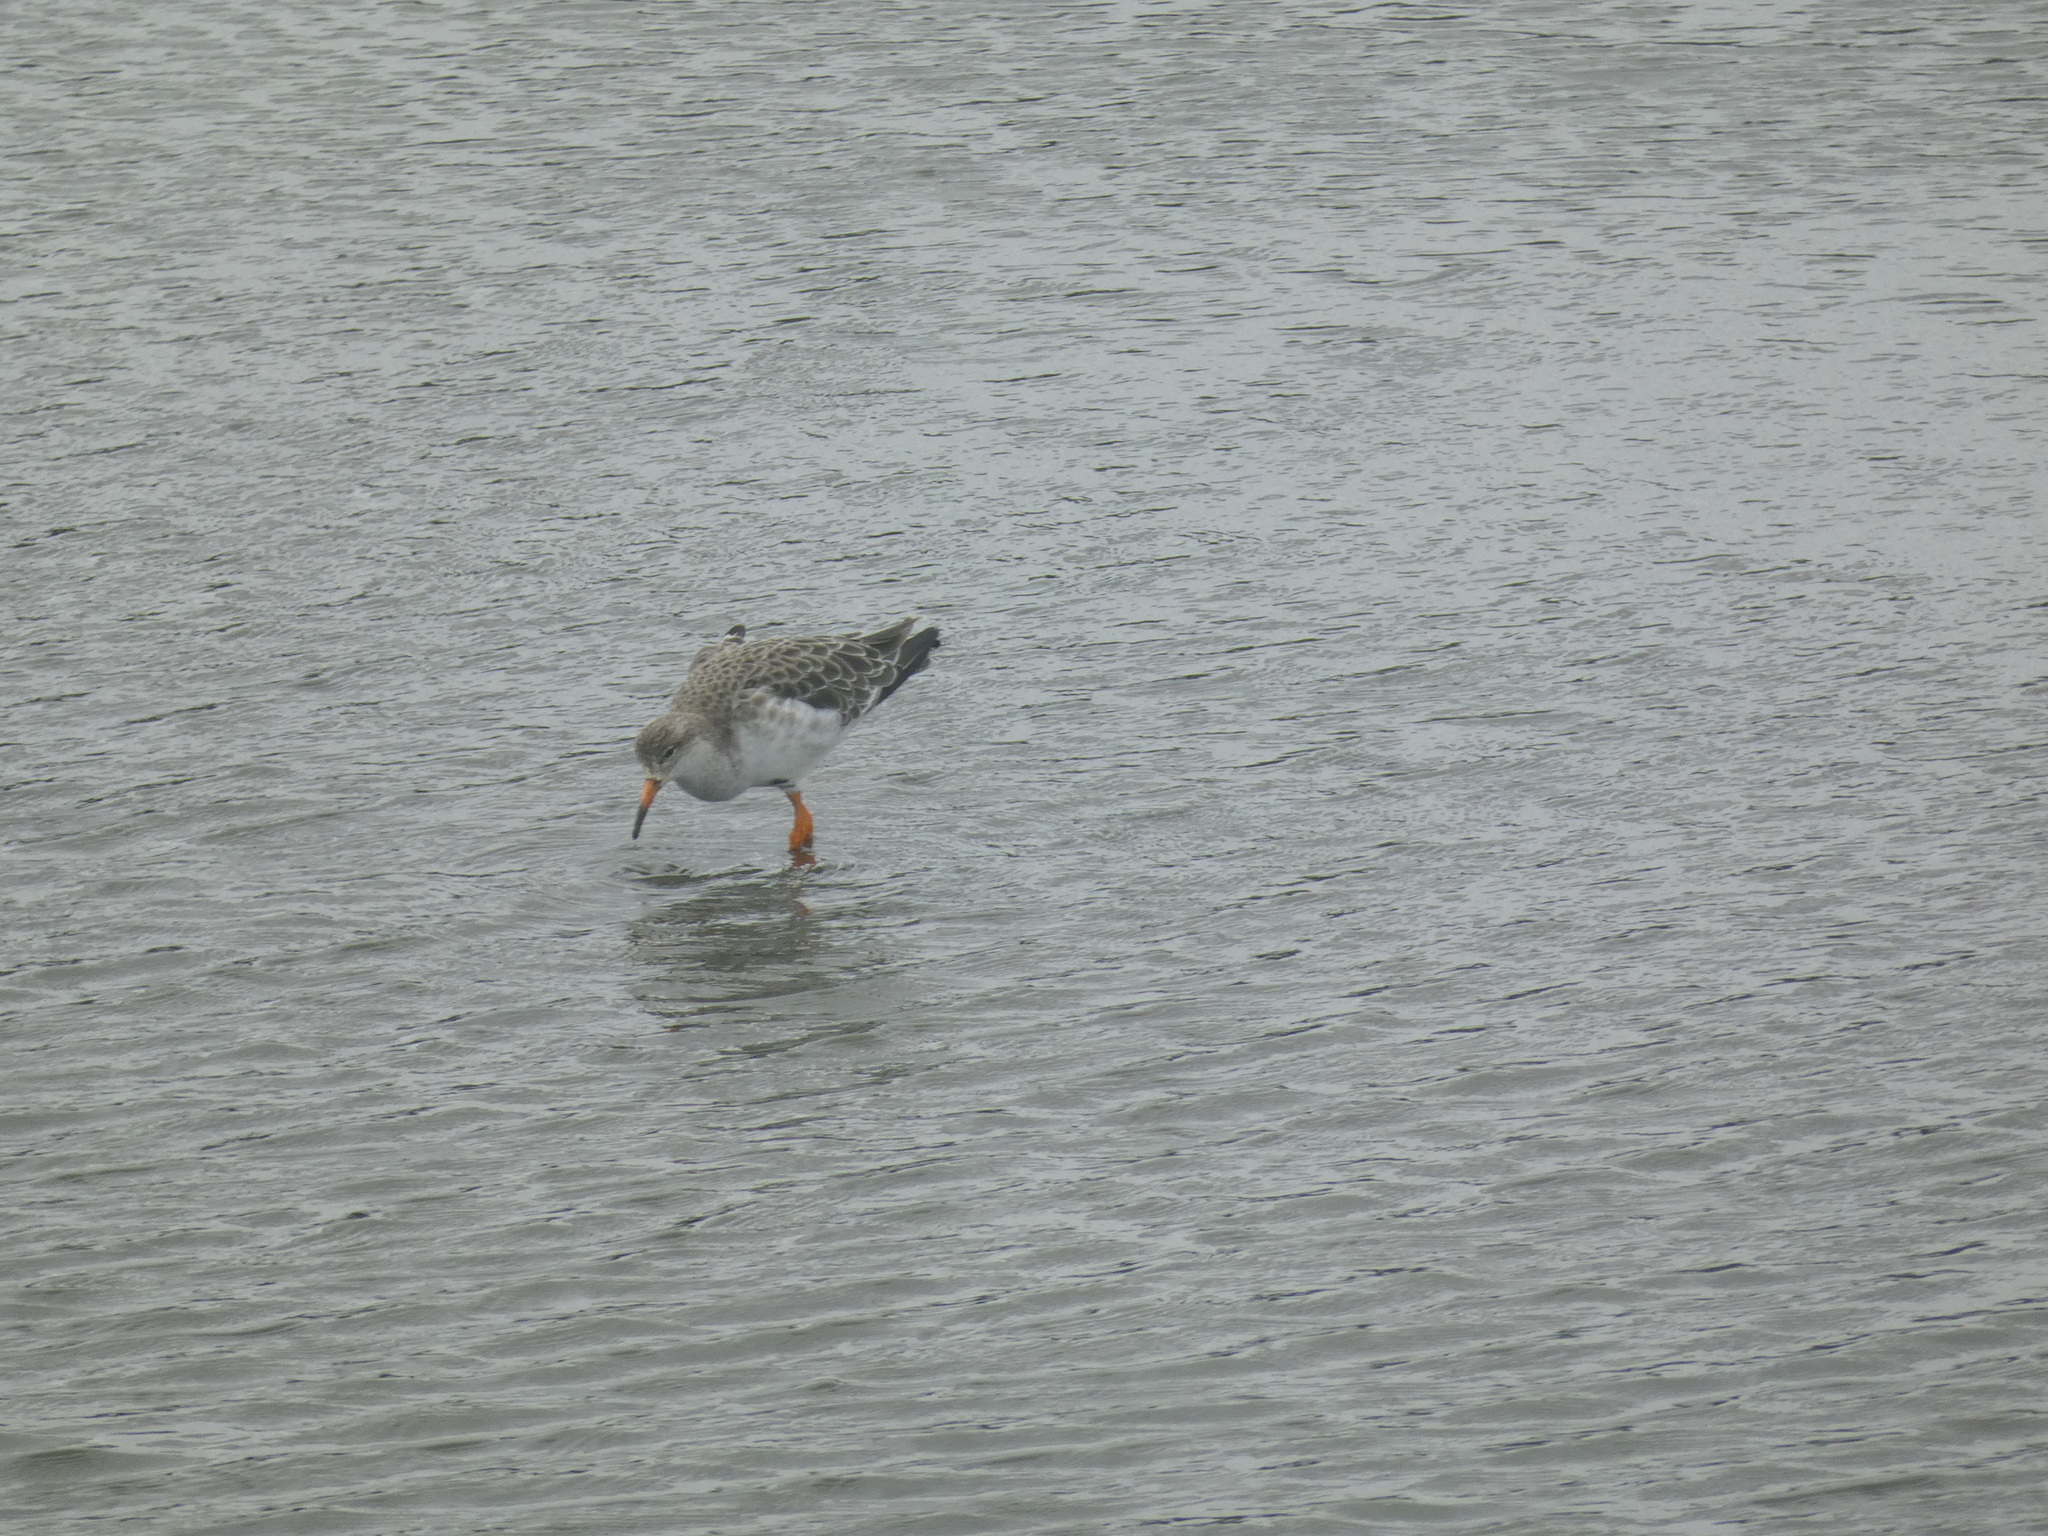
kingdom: Animalia
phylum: Chordata
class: Aves
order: Charadriiformes
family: Scolopacidae
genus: Calidris
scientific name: Calidris pugnax
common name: Ruff
